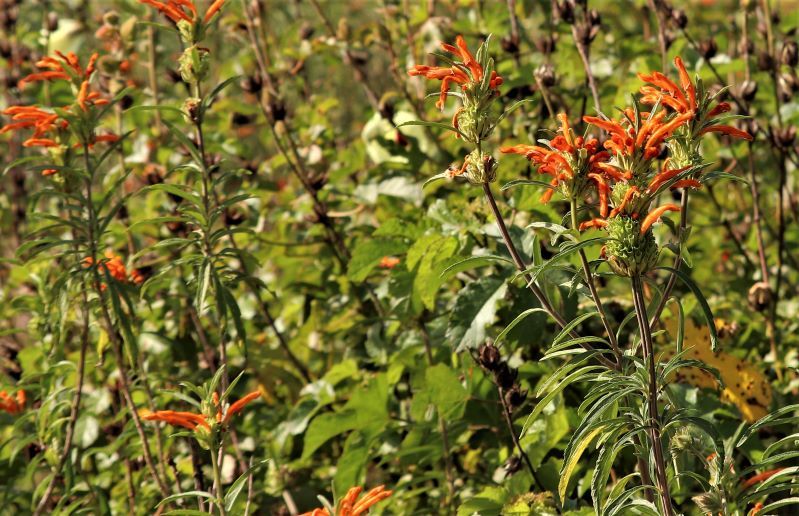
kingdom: Plantae
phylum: Tracheophyta
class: Magnoliopsida
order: Lamiales
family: Lamiaceae
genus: Leonotis
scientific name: Leonotis leonurus
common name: Lion's ear
